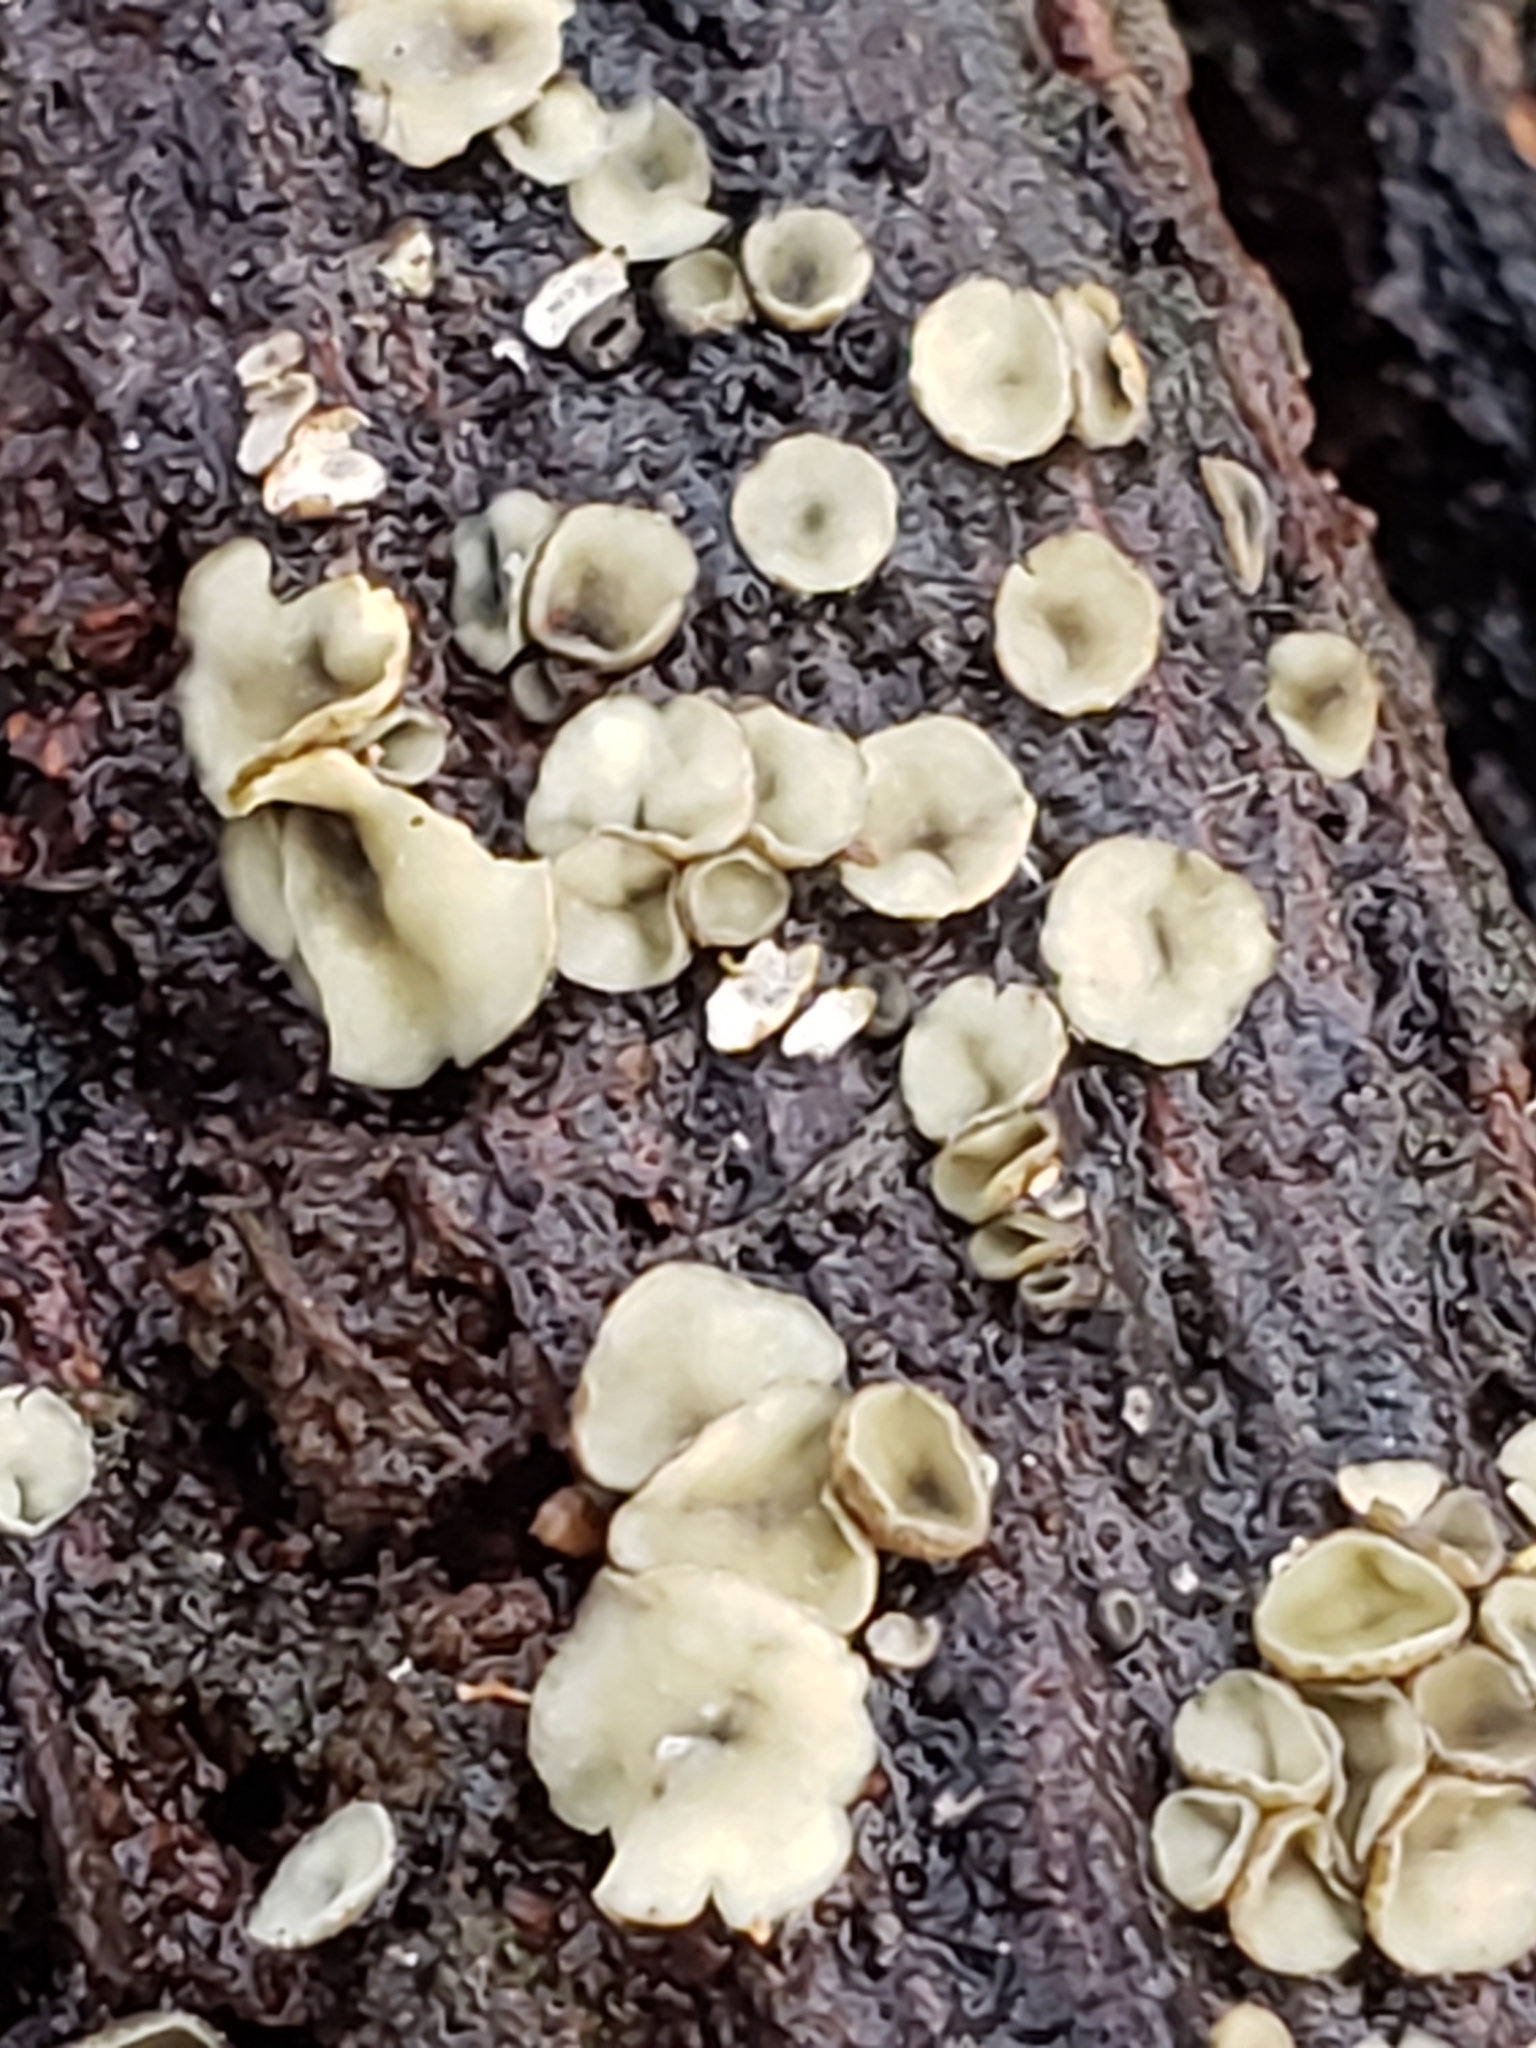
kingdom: Fungi
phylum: Ascomycota
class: Leotiomycetes
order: Helotiales
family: Chlorospleniaceae
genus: Chlorosplenium
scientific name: Chlorosplenium chlora
